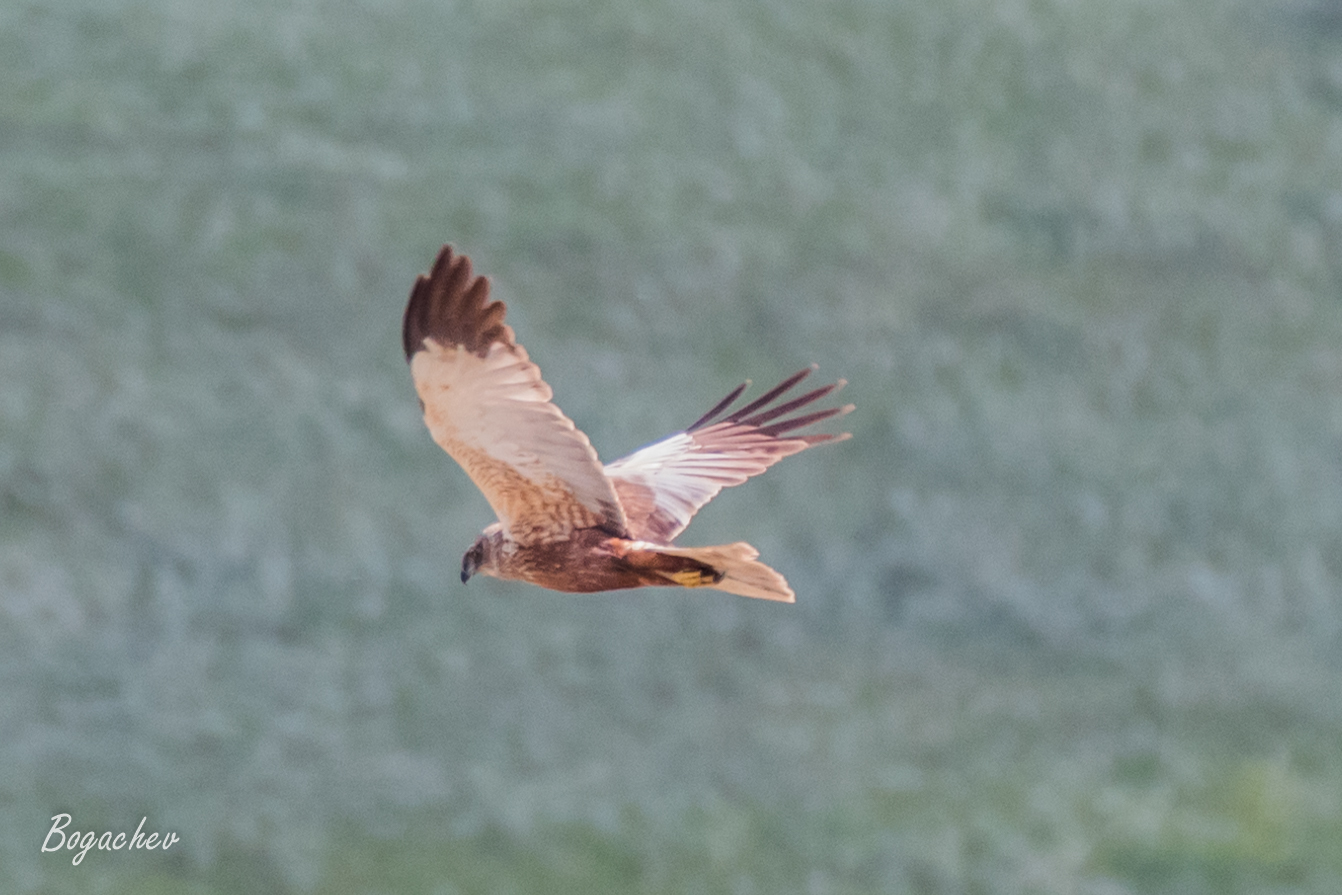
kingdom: Animalia
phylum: Chordata
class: Aves
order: Accipitriformes
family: Accipitridae
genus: Circus
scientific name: Circus aeruginosus
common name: Western marsh harrier
